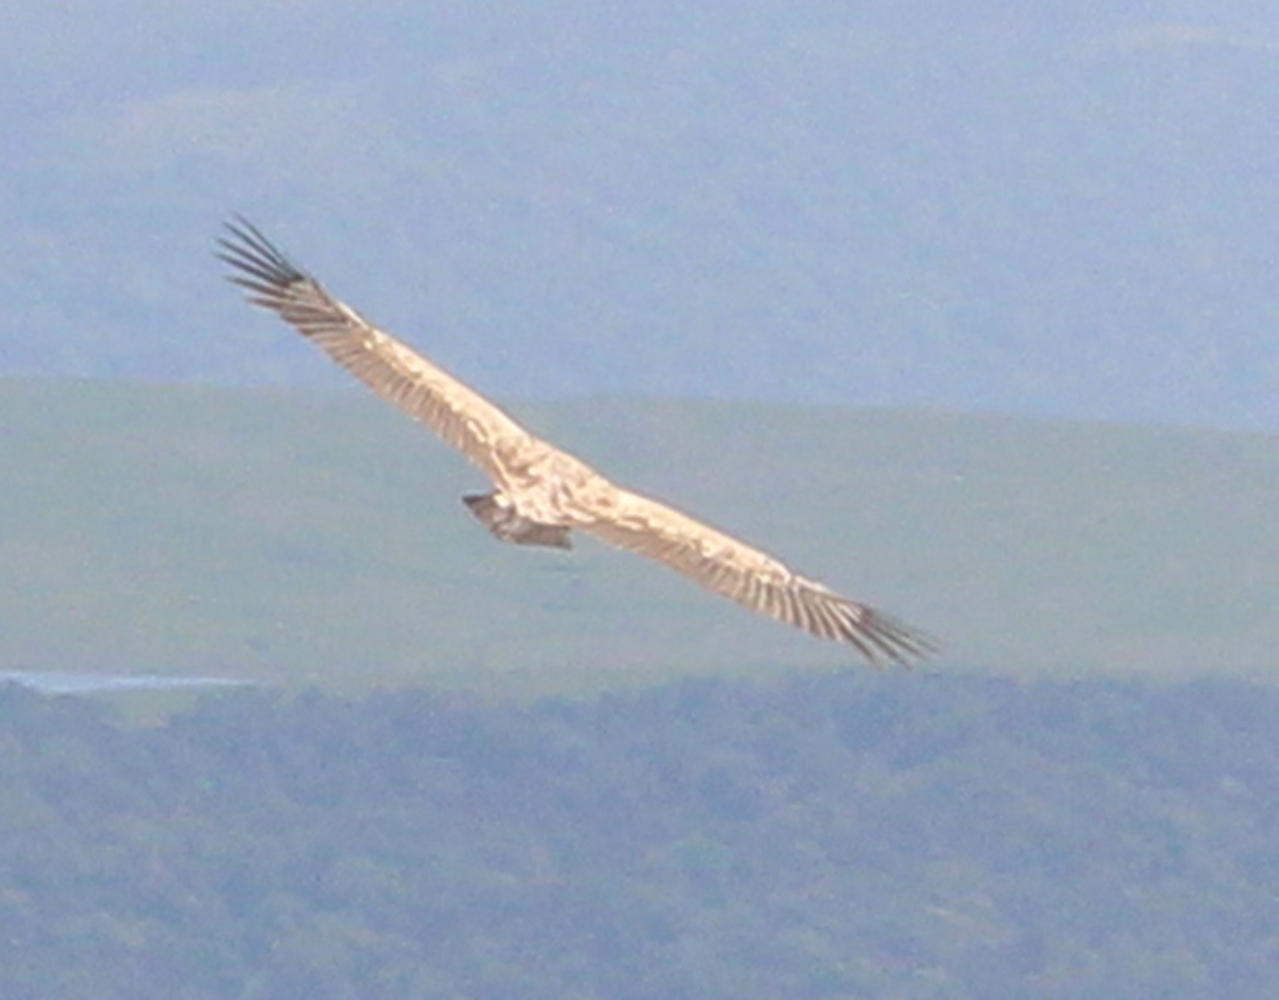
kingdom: Animalia
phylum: Chordata
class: Aves
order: Accipitriformes
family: Accipitridae
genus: Gyps
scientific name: Gyps coprotheres
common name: Cape vulture
